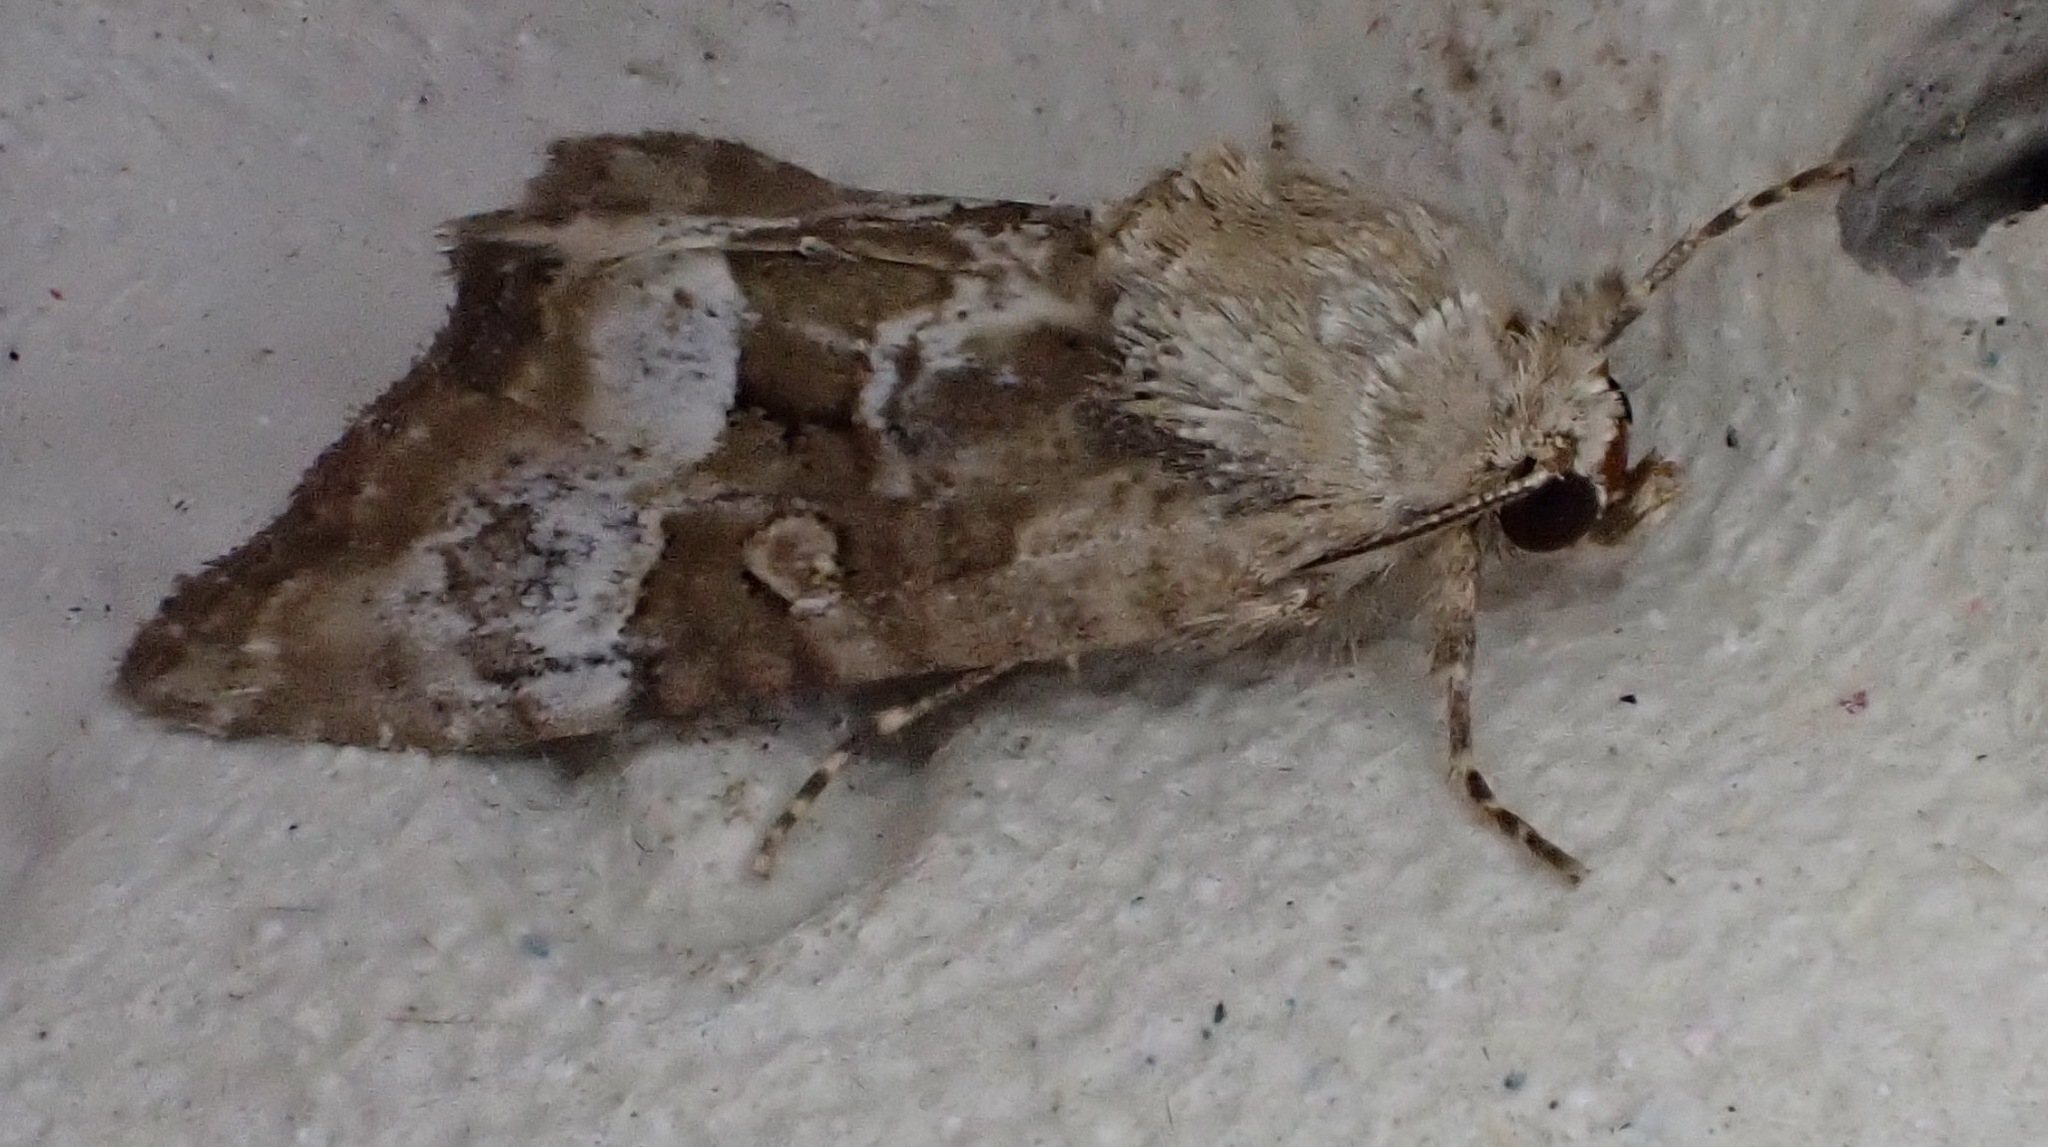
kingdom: Animalia
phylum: Arthropoda
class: Insecta
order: Lepidoptera
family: Noctuidae
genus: Mesoligia
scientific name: Mesoligia furuncula
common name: Cloaked minor
